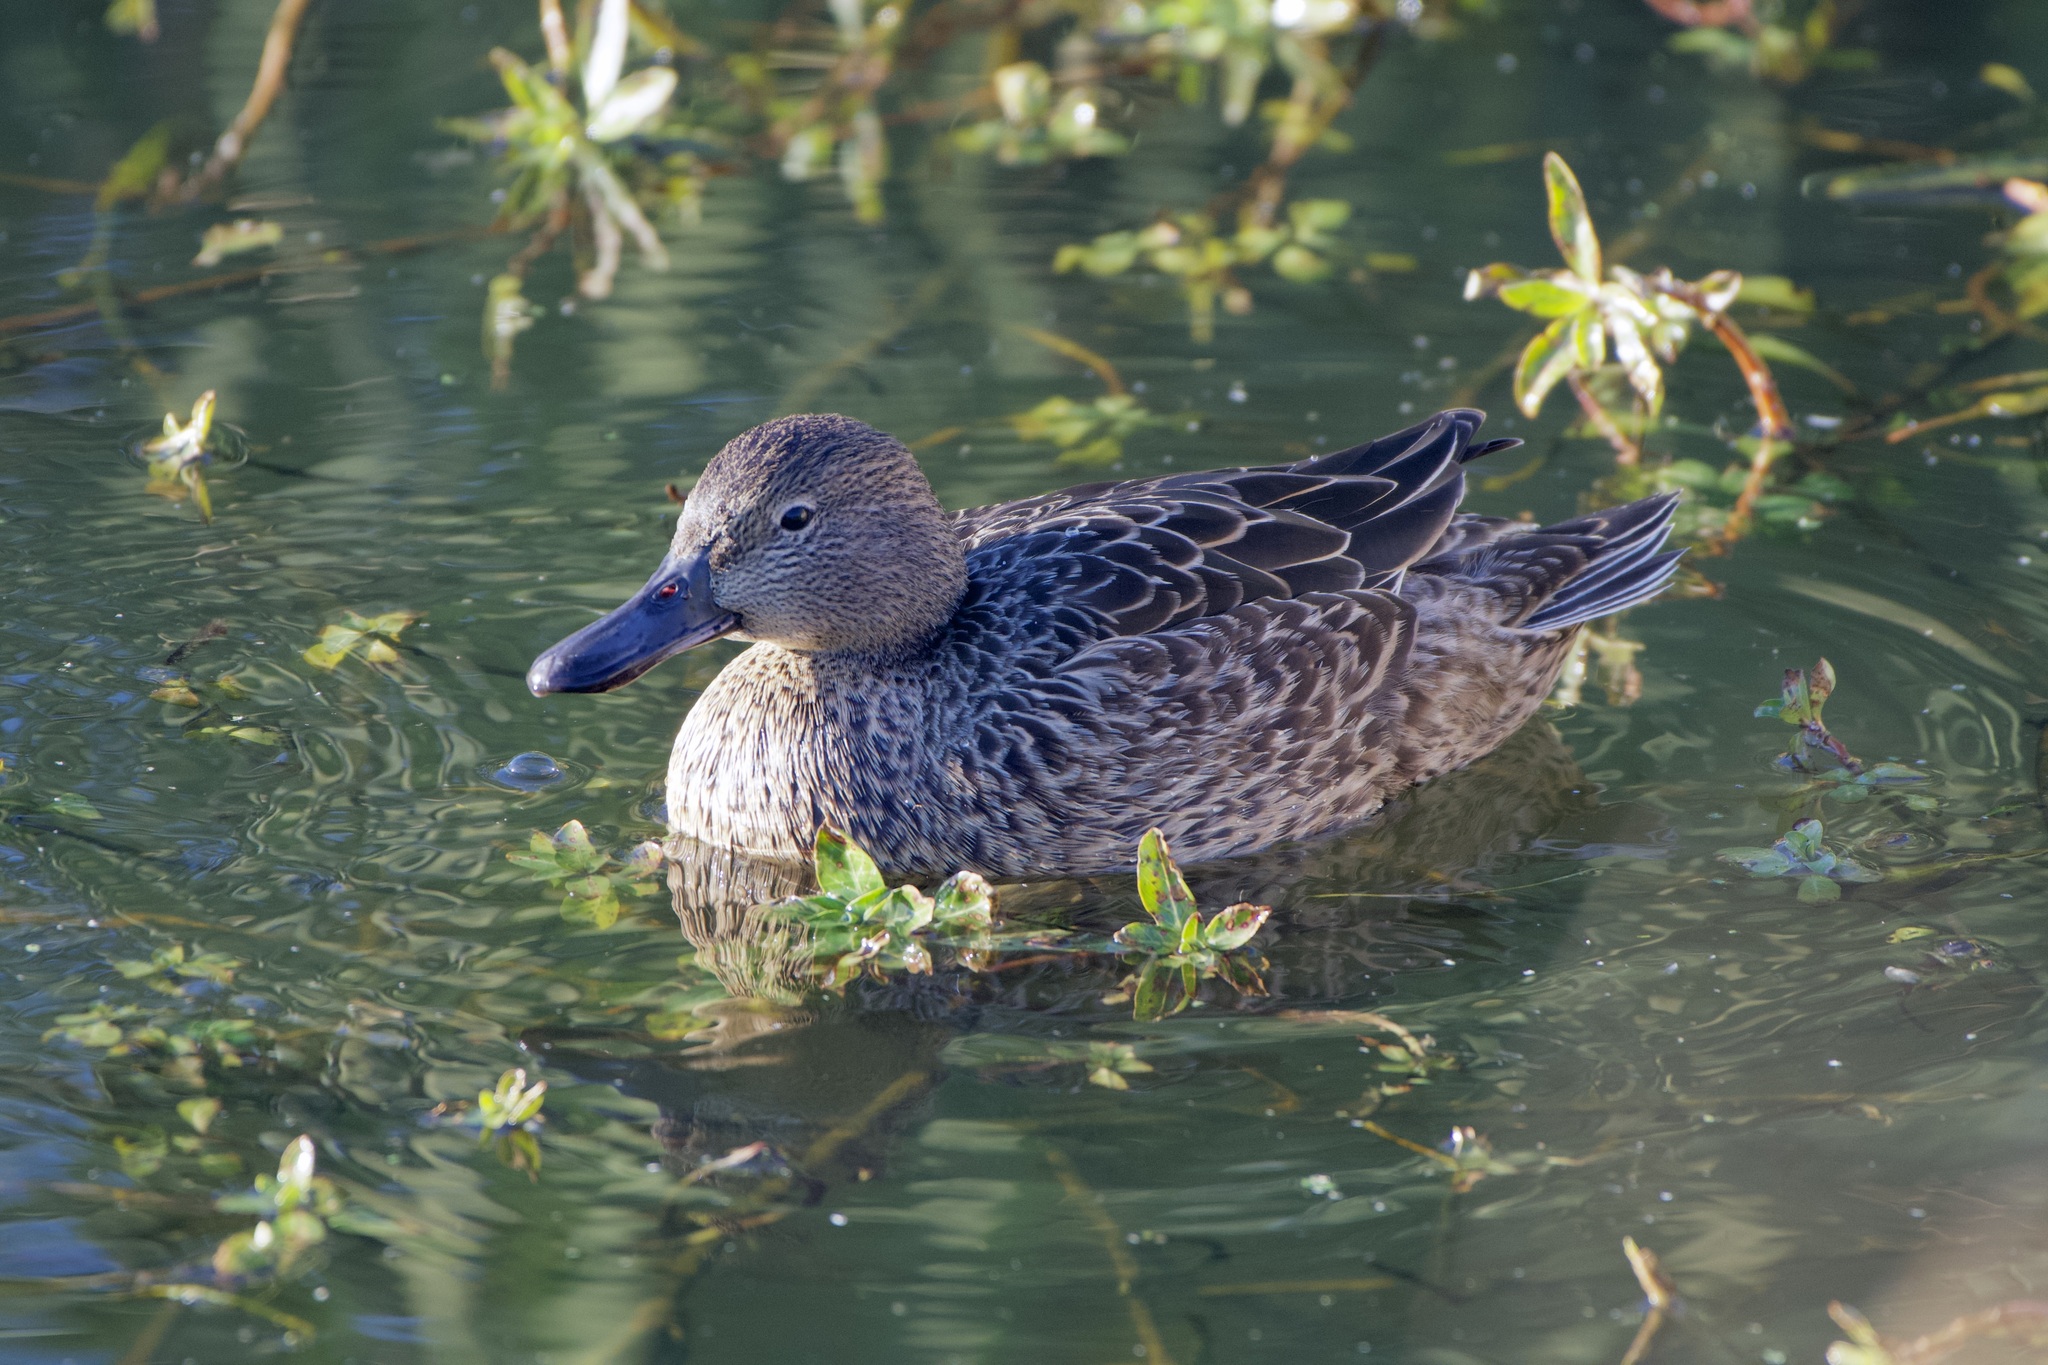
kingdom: Animalia
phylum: Chordata
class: Aves
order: Anseriformes
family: Anatidae
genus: Spatula
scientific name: Spatula cyanoptera
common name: Cinnamon teal
